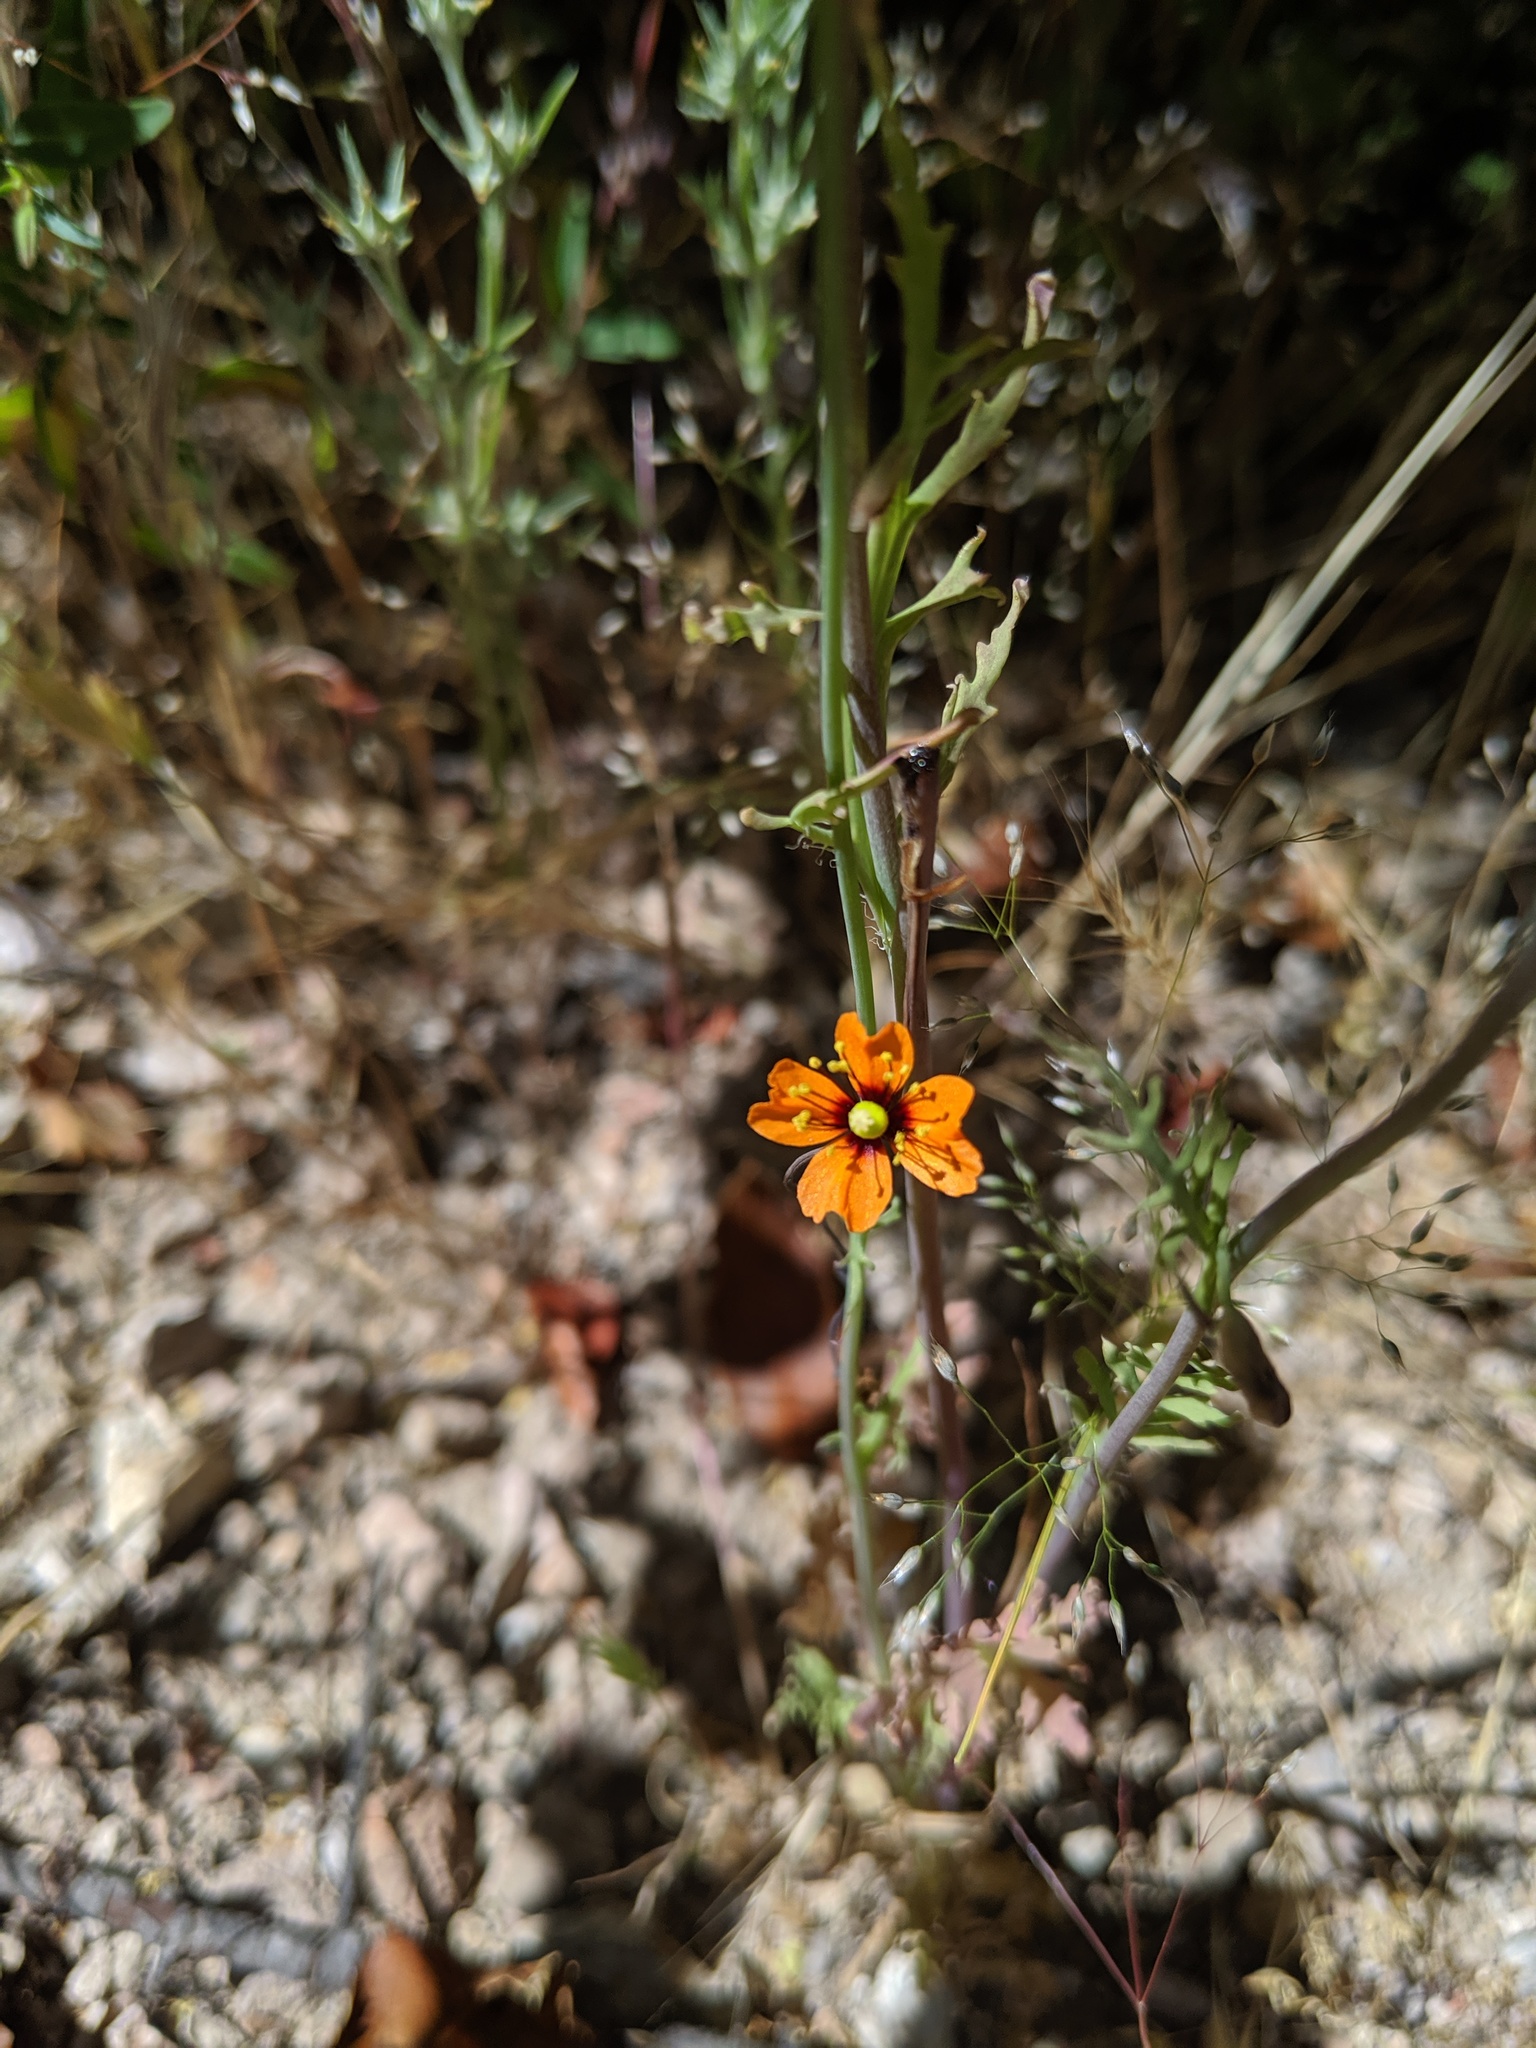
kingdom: Plantae
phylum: Tracheophyta
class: Magnoliopsida
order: Ranunculales
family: Papaveraceae
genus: Stylomecon
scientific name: Stylomecon heterophylla
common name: Flaming-poppy
